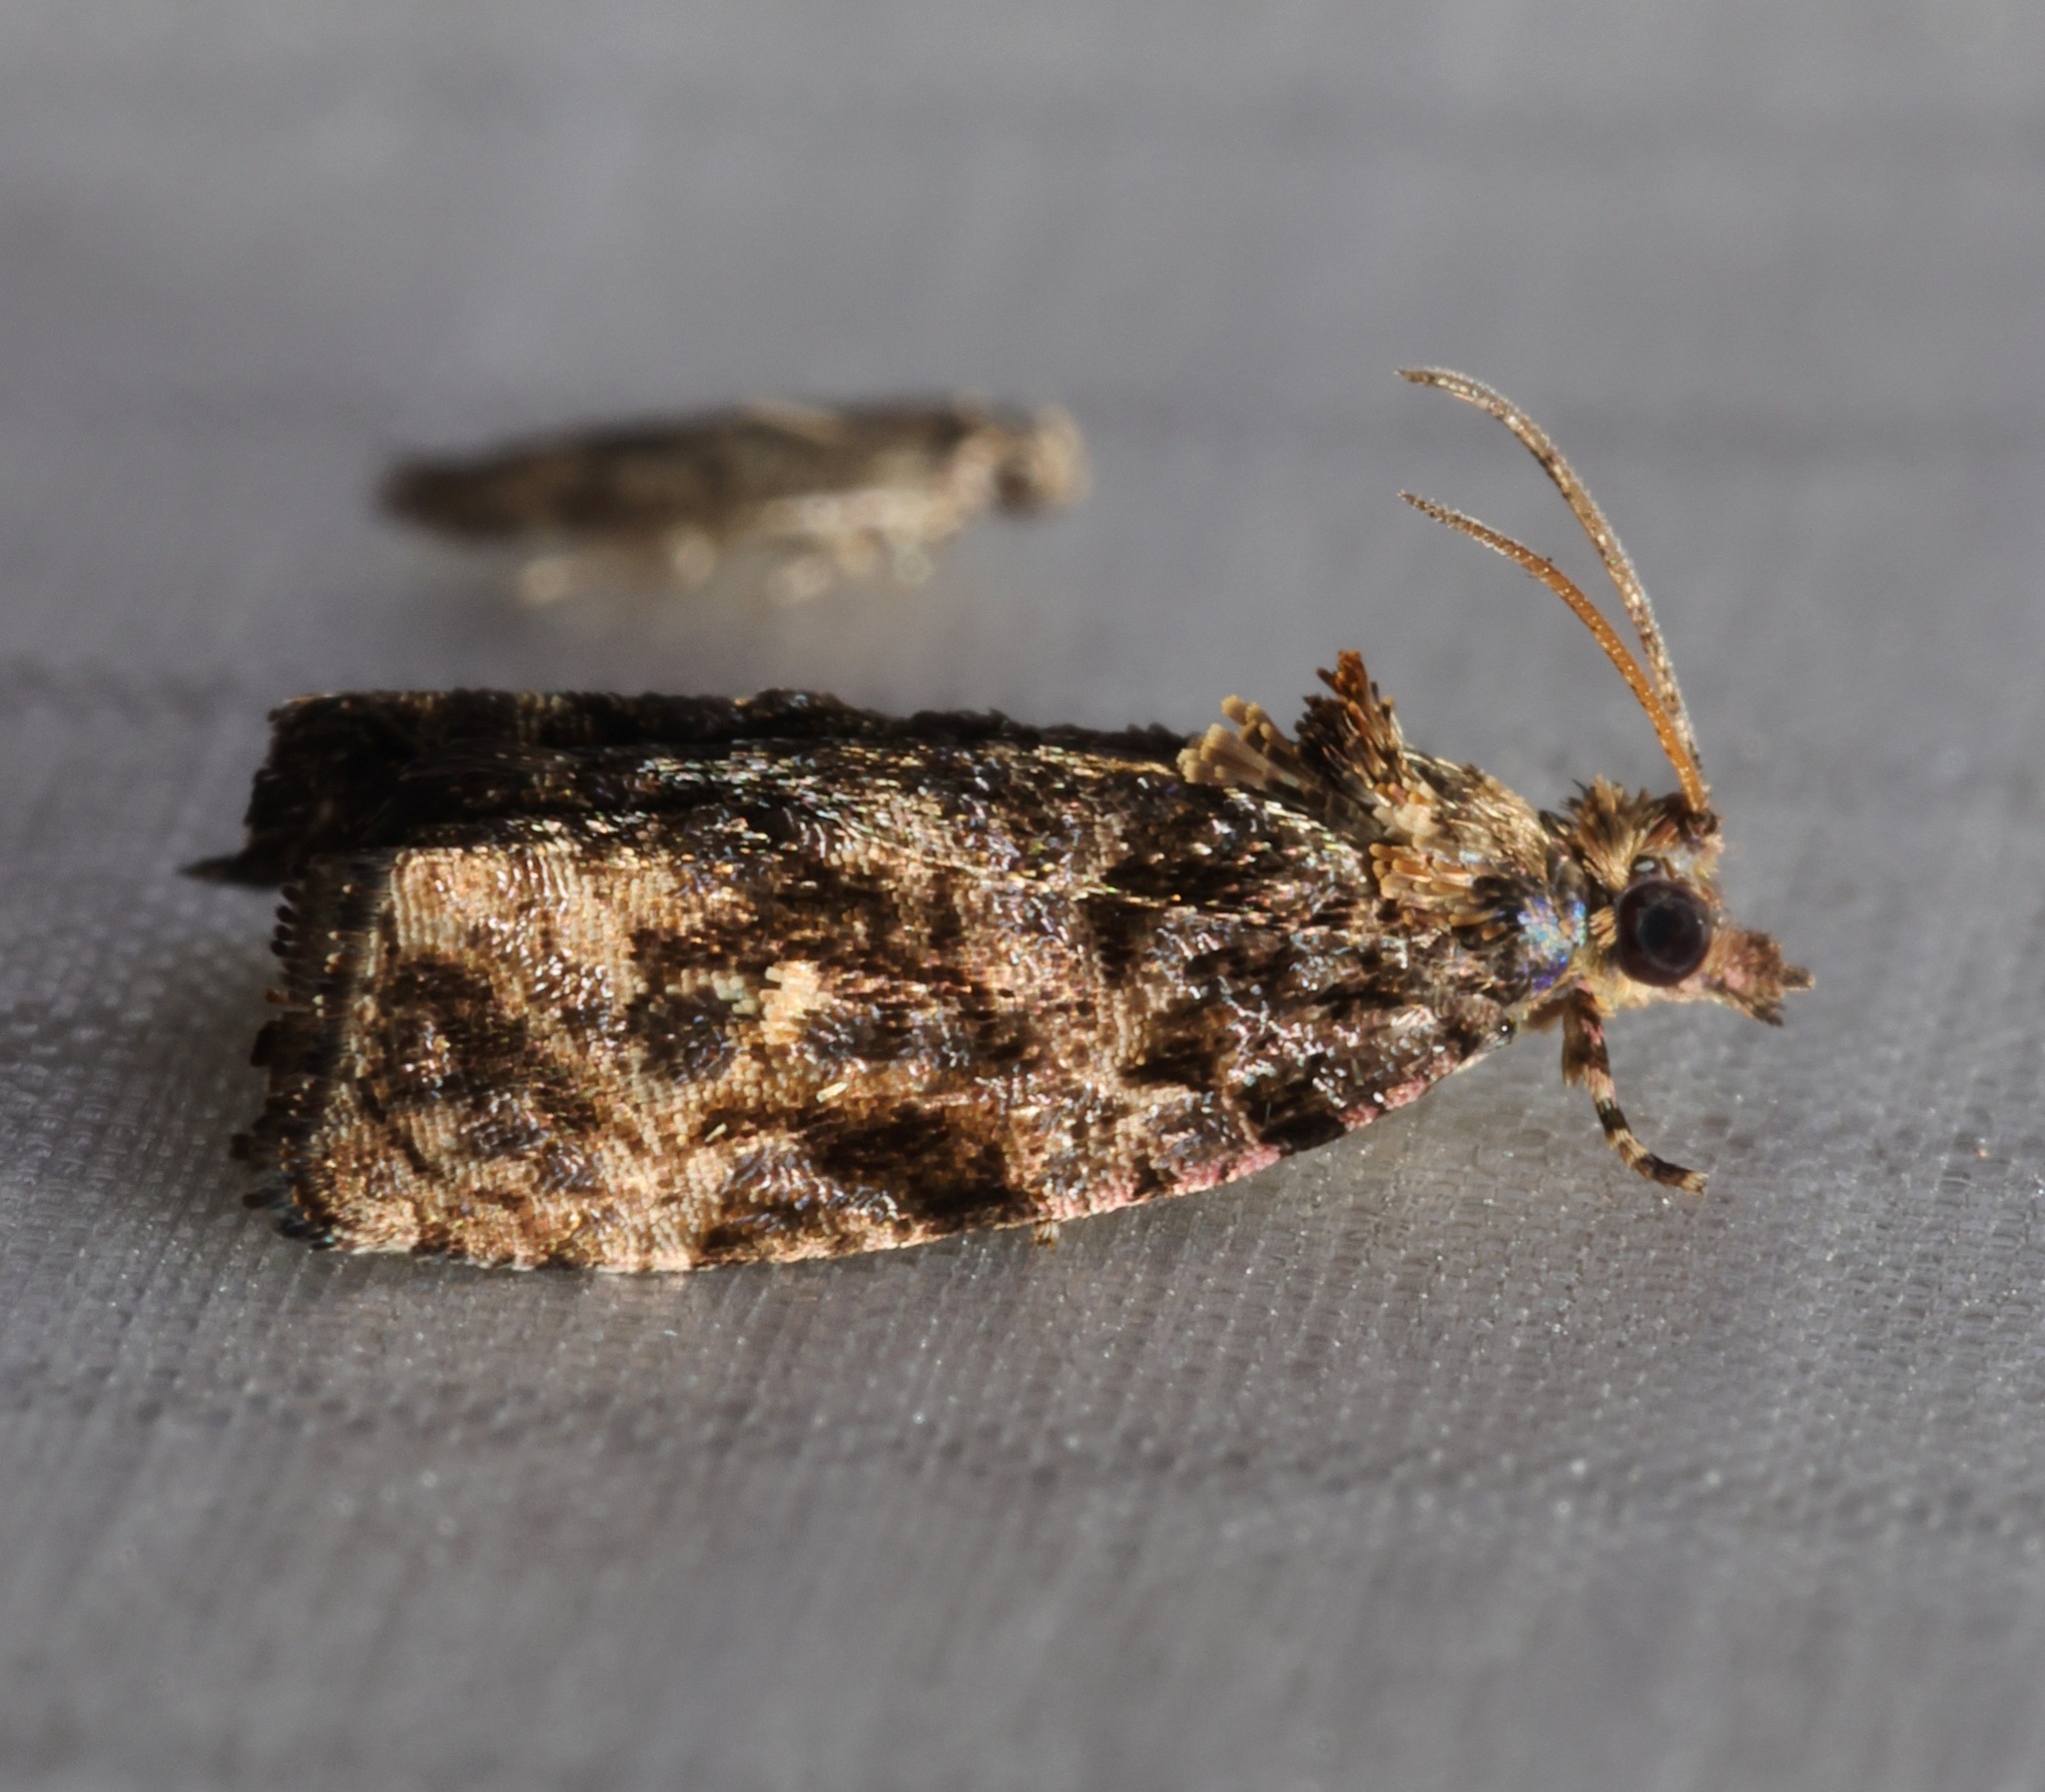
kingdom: Animalia
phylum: Arthropoda
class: Insecta
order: Lepidoptera
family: Tortricidae
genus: Gatesclarkeana
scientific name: Gatesclarkeana idia
